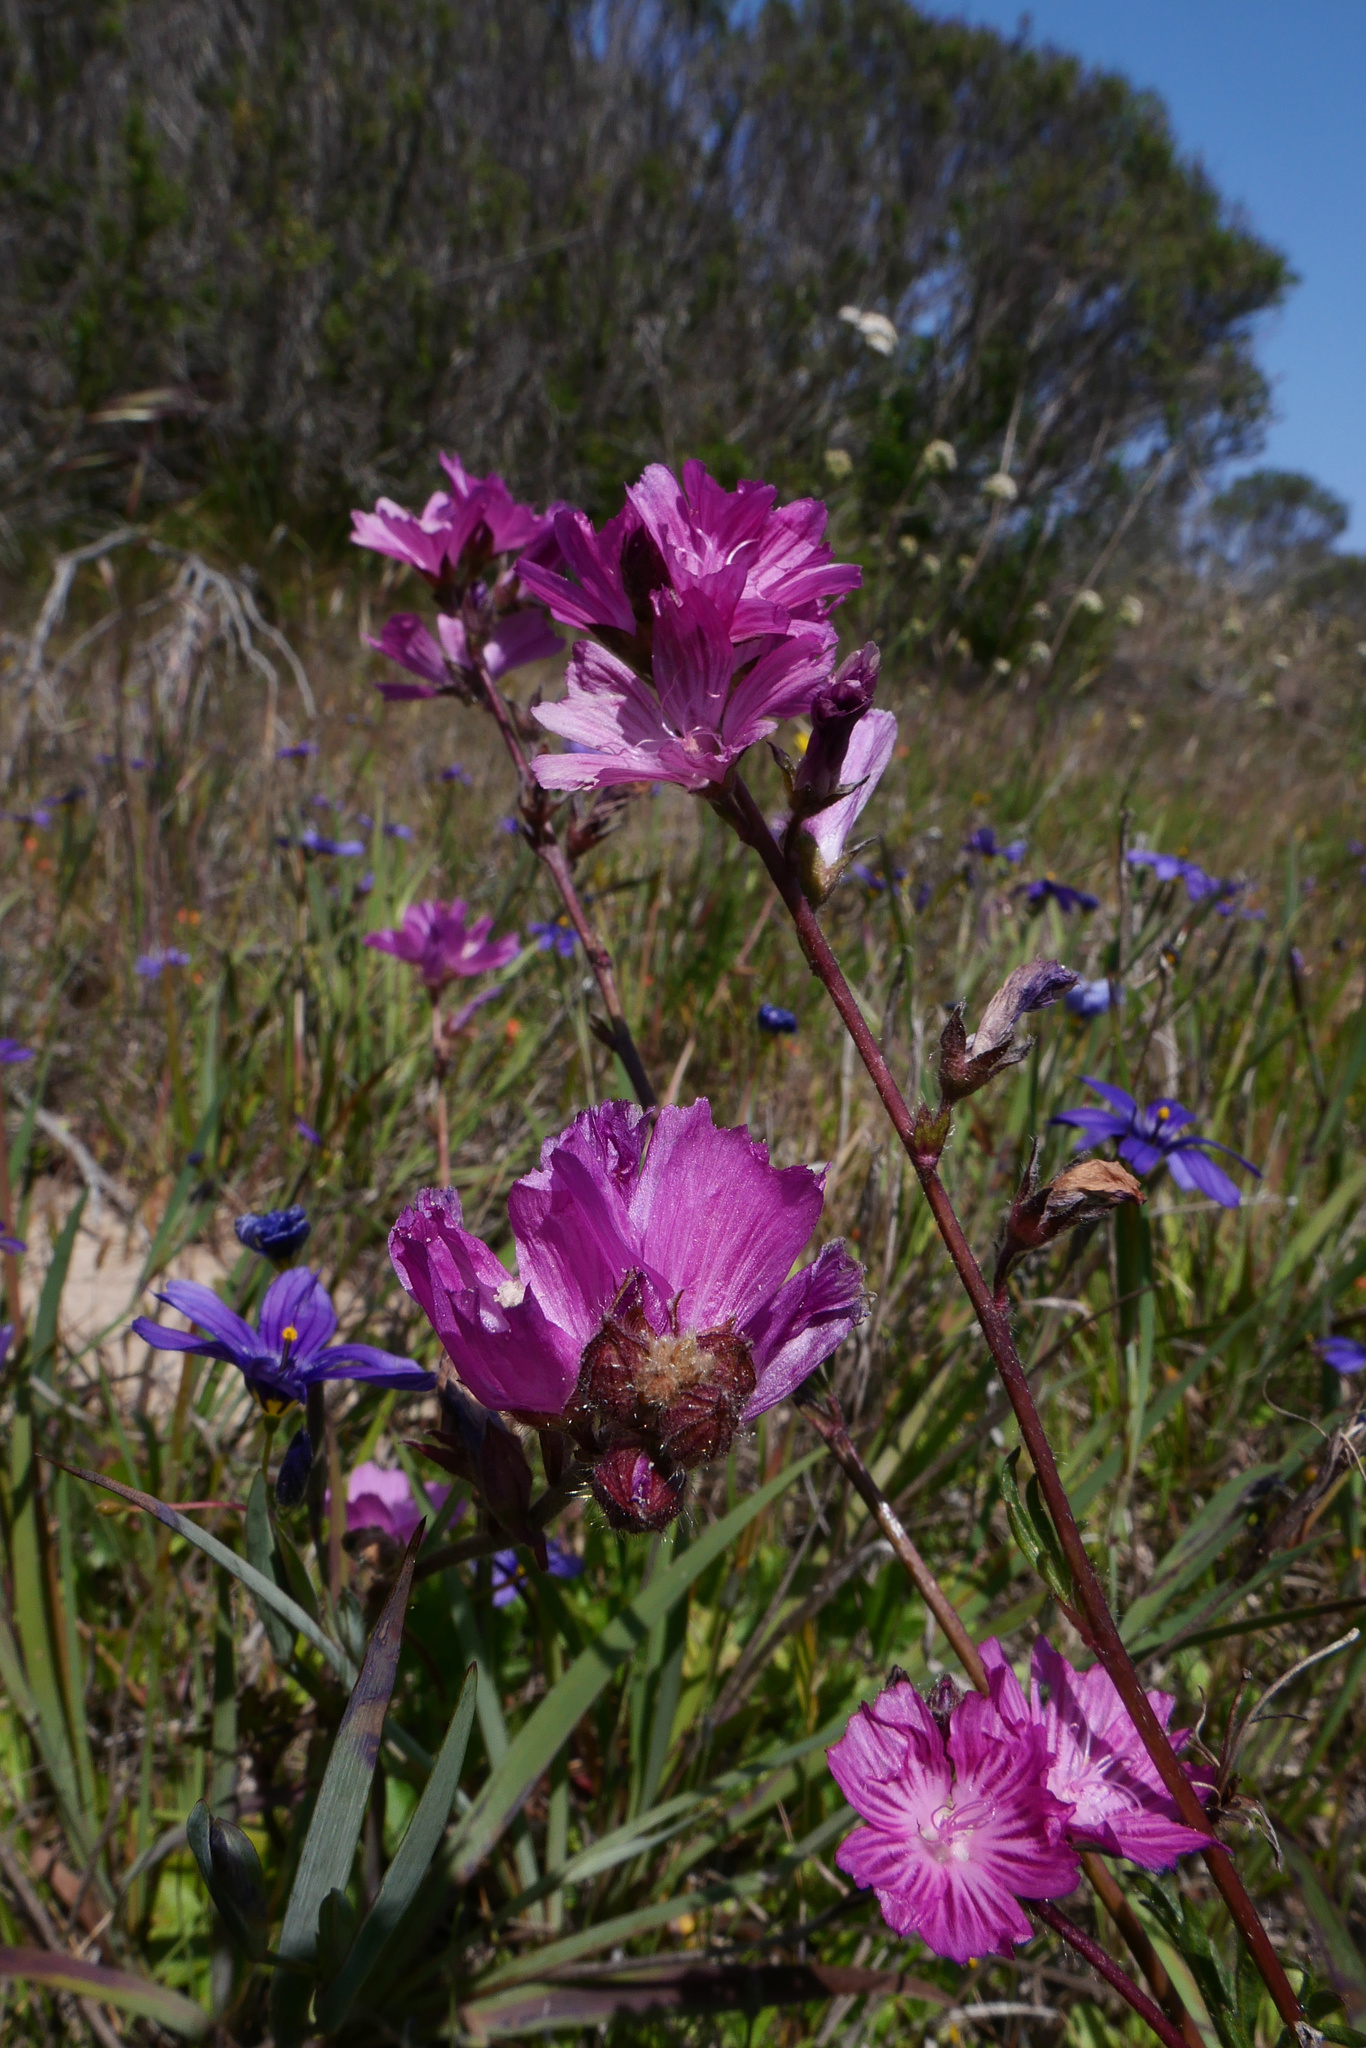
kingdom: Plantae
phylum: Tracheophyta
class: Magnoliopsida
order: Malvales
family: Malvaceae
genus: Sidalcea
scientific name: Sidalcea malviflora
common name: Greek mallow
